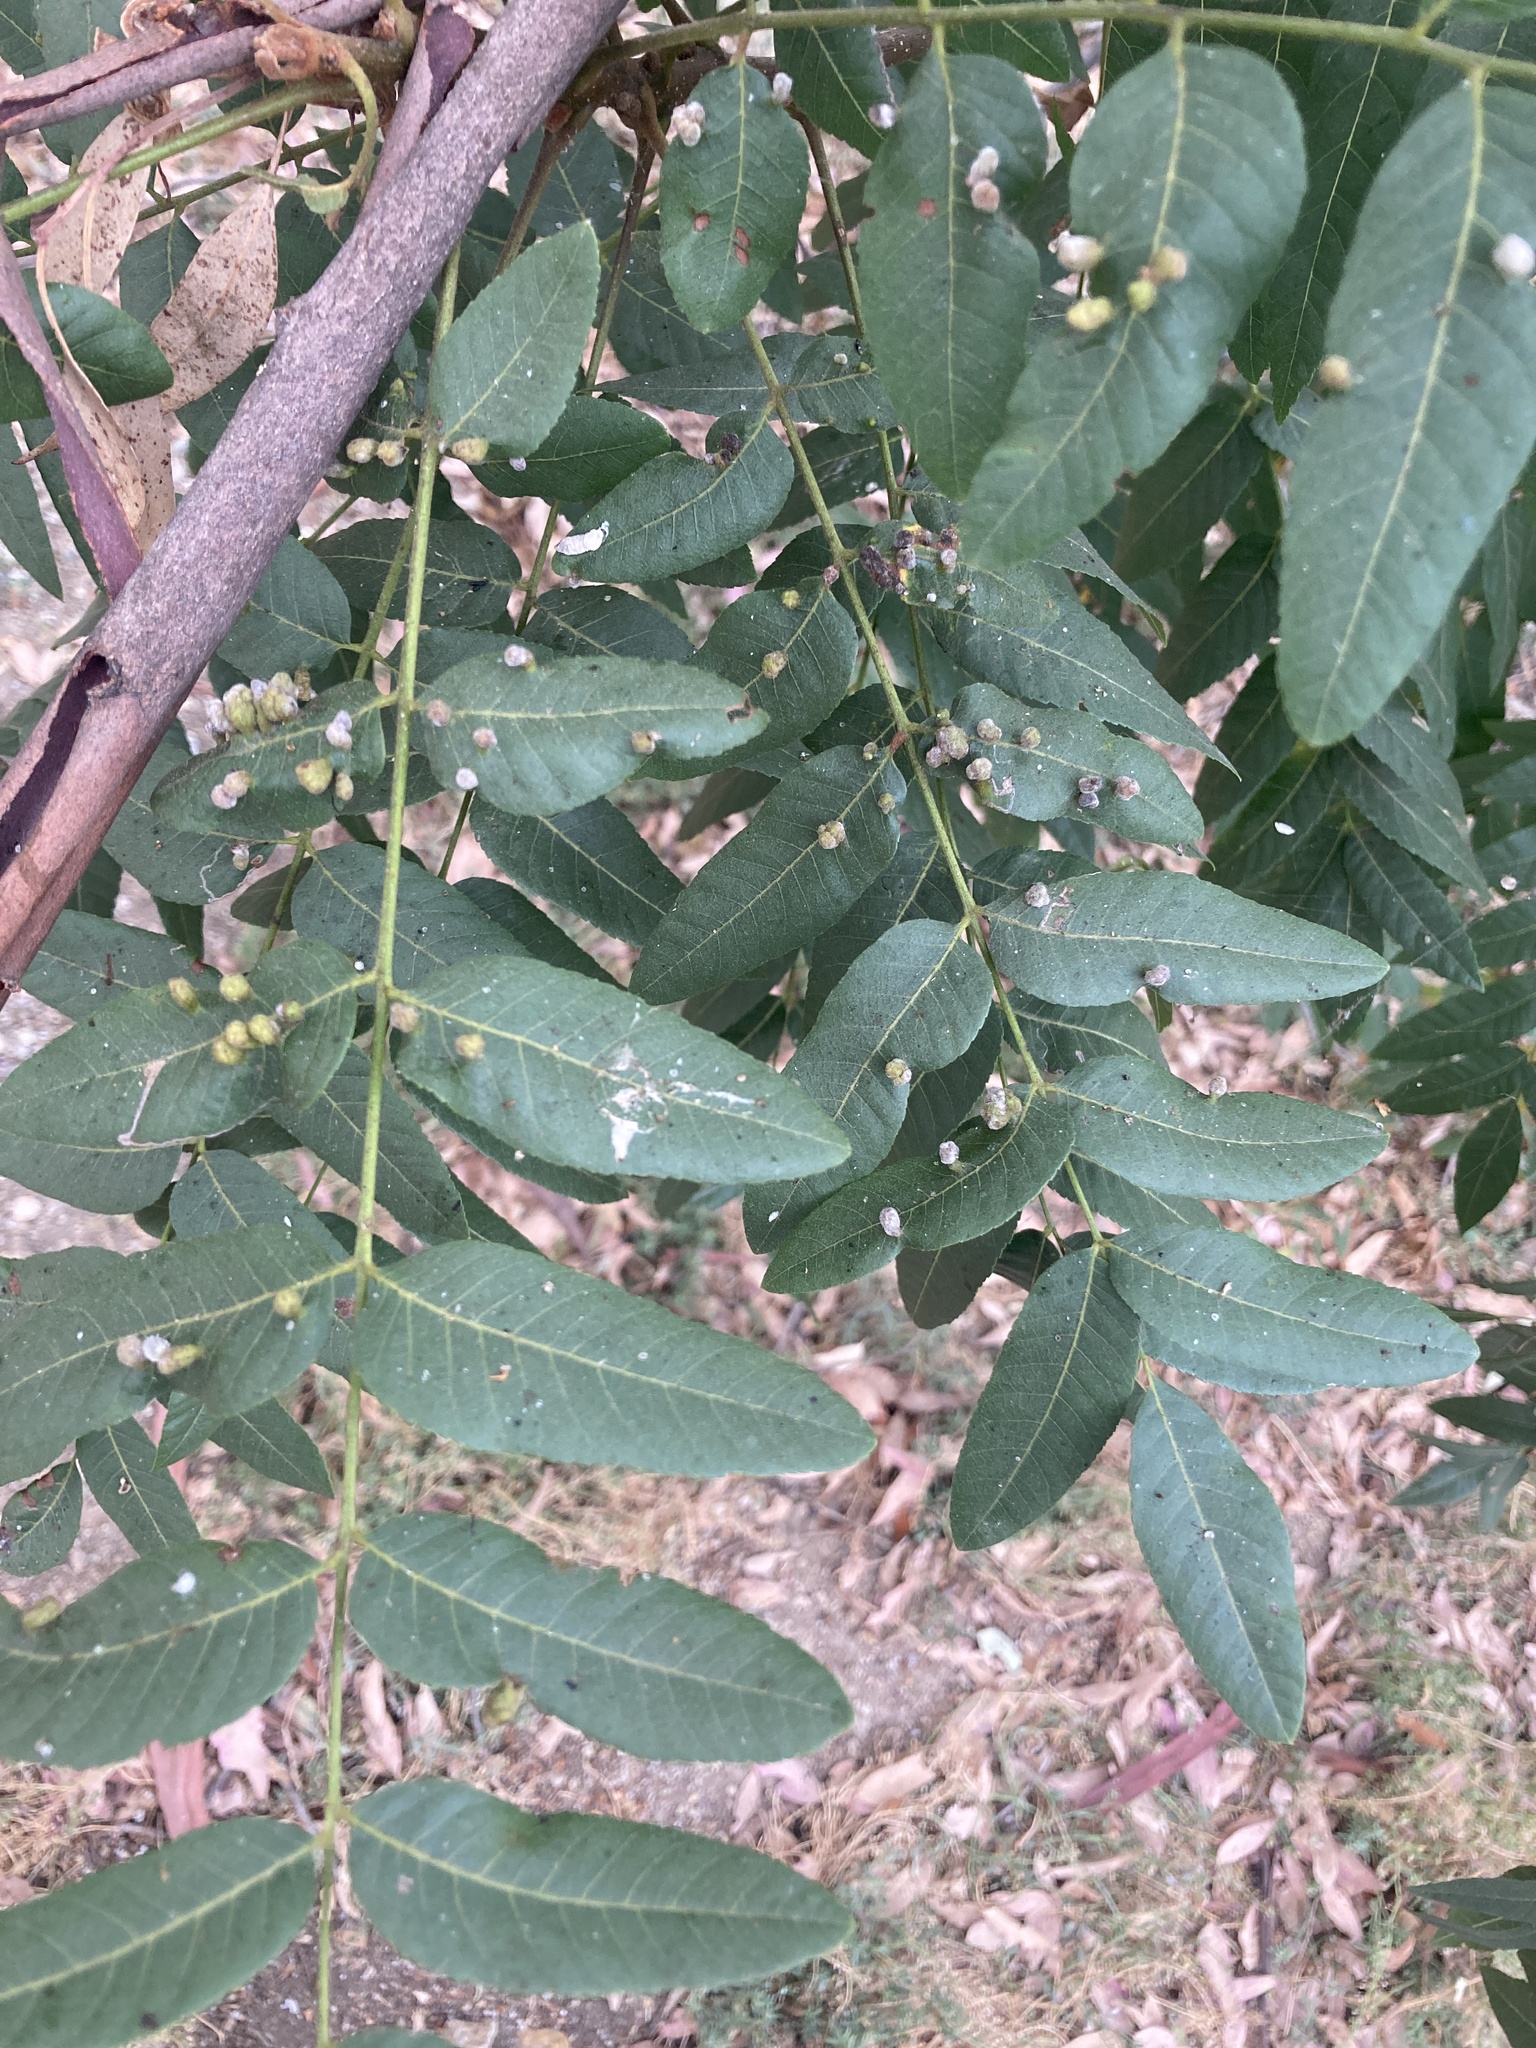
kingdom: Plantae
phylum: Tracheophyta
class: Magnoliopsida
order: Fagales
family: Juglandaceae
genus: Juglans
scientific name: Juglans californica
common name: Southern california black walnut
